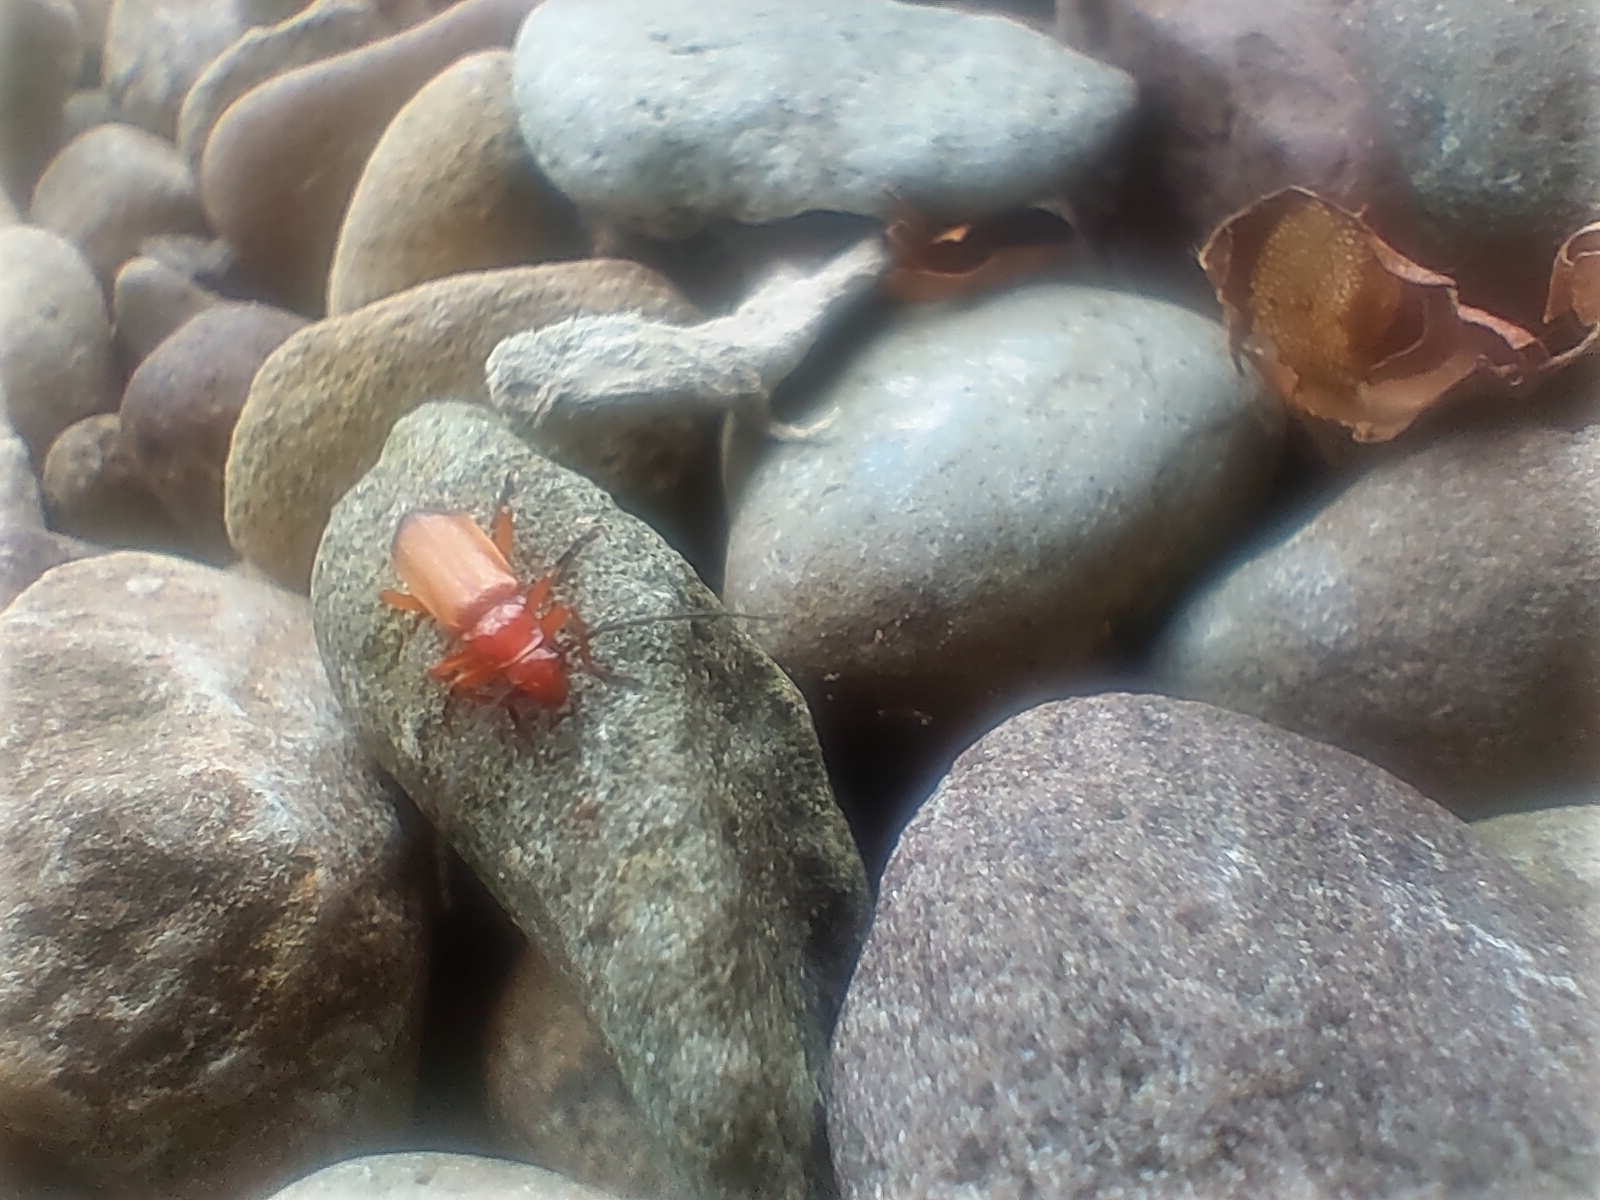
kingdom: Animalia
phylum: Arthropoda
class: Insecta
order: Coleoptera
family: Cantharidae
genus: Rhagonycha
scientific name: Rhagonycha fulva
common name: Common red soldier beetle
